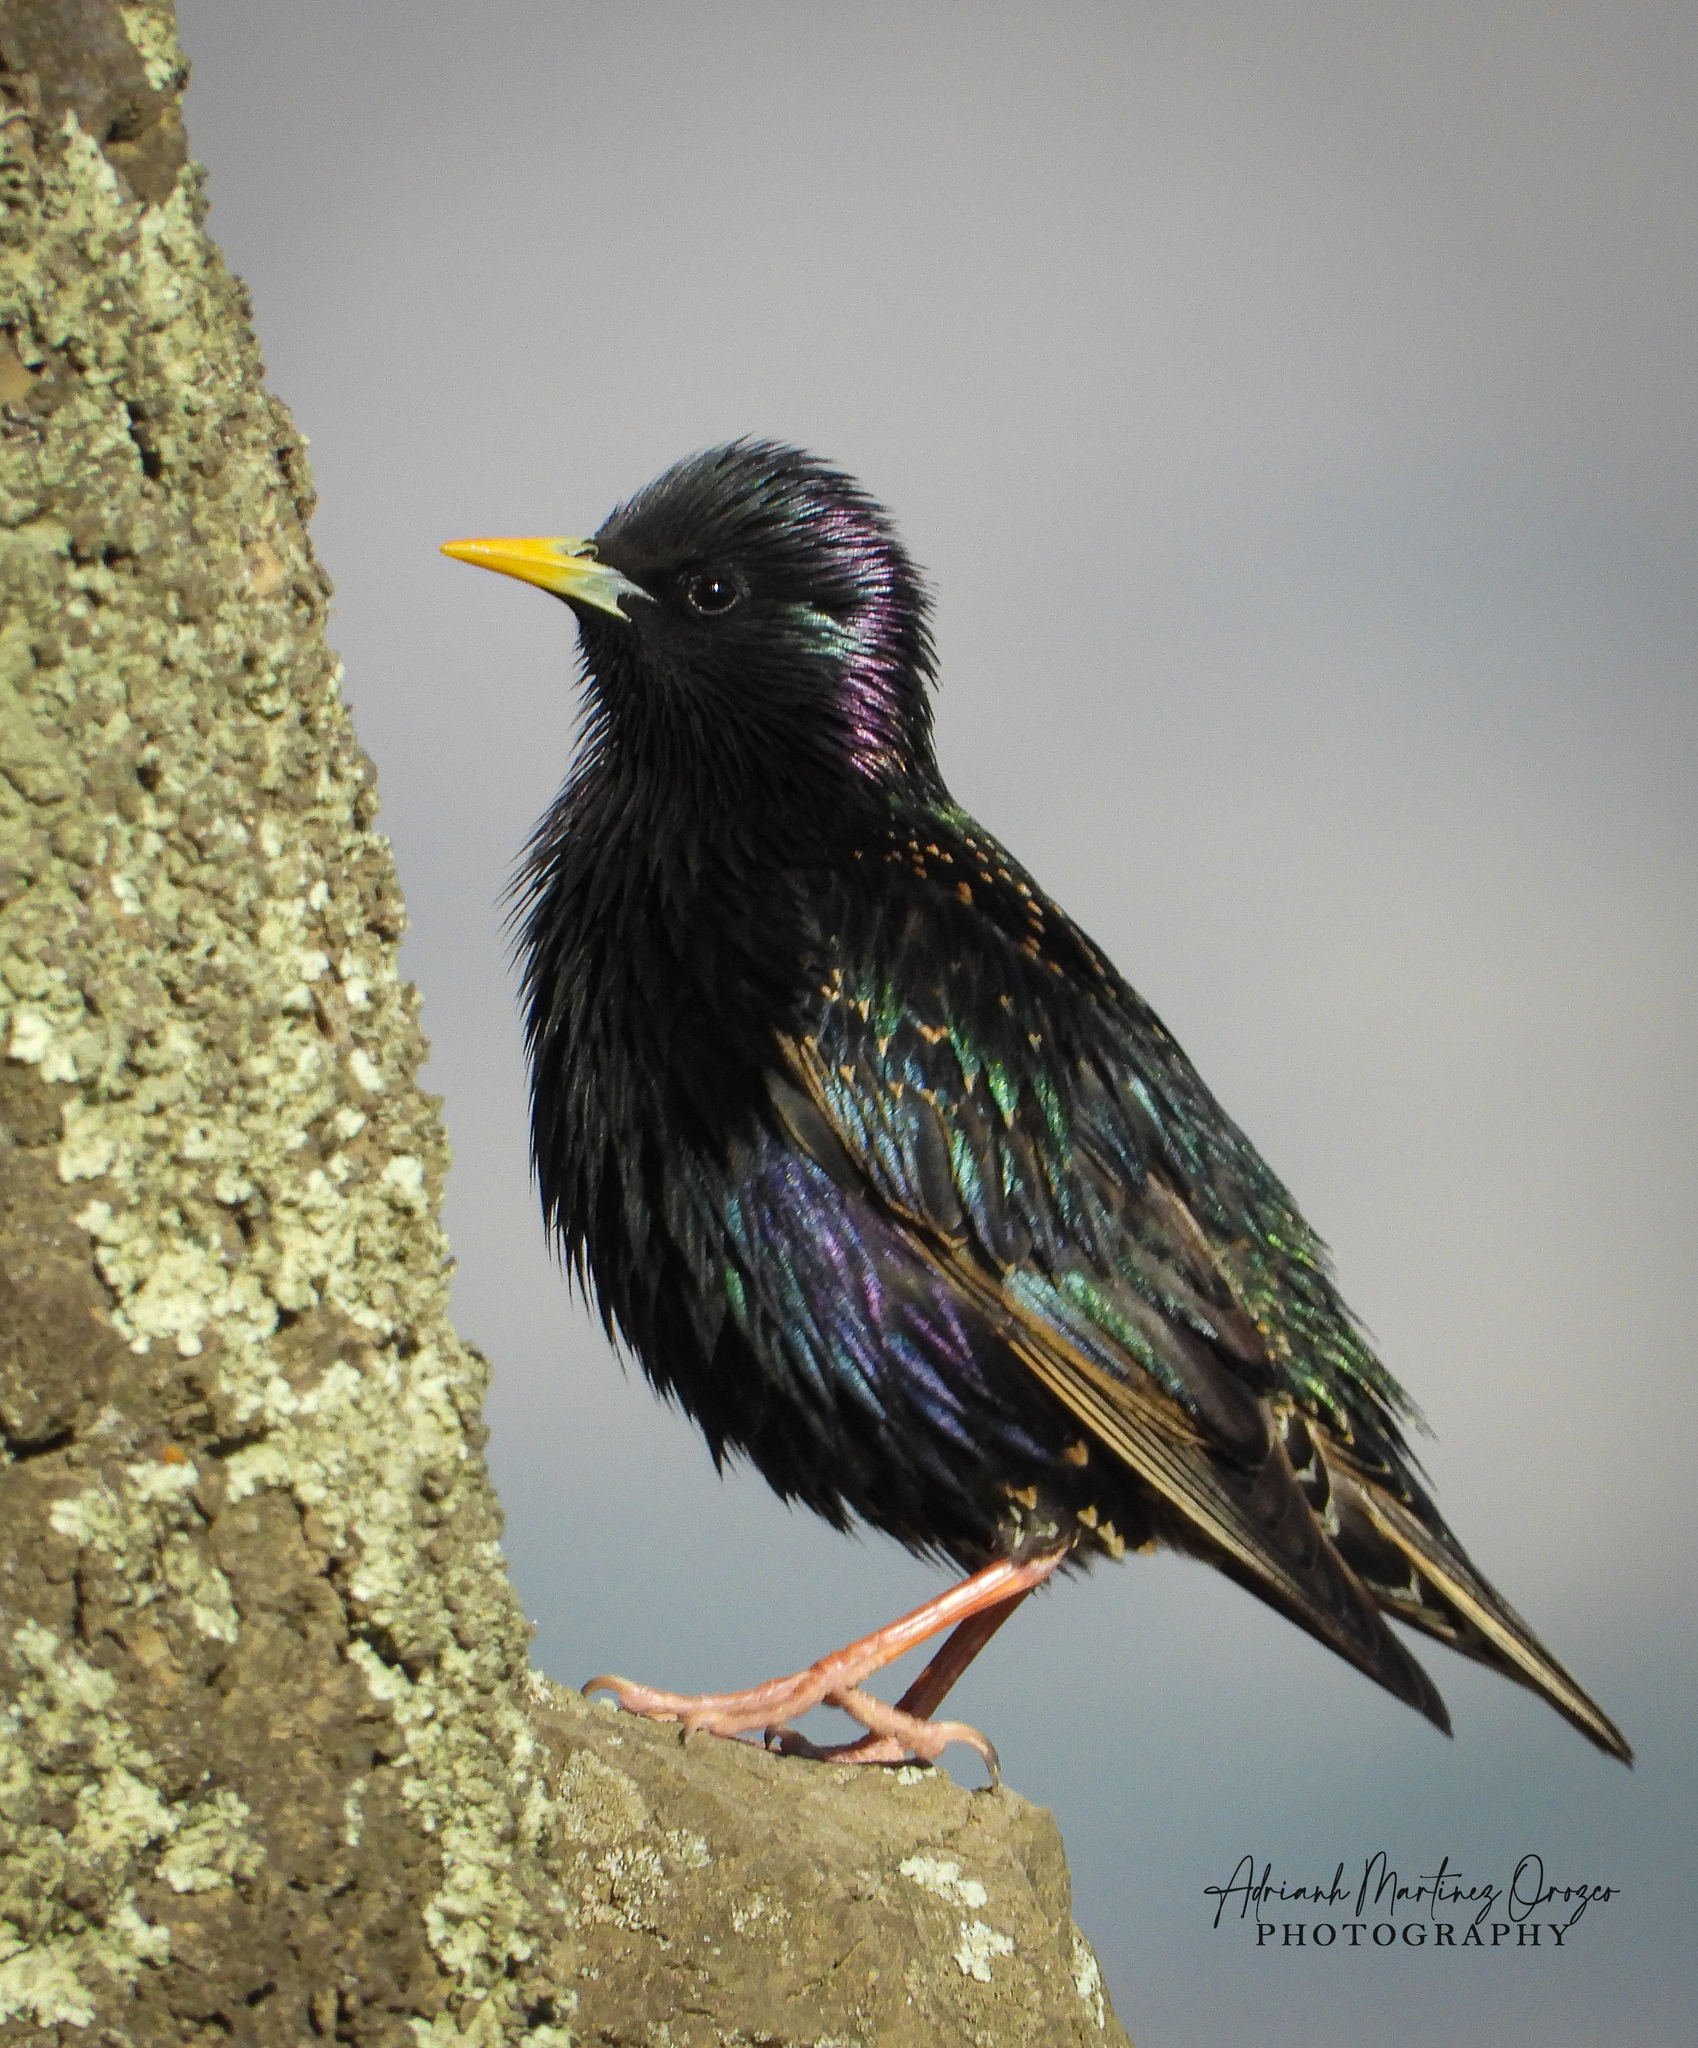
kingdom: Animalia
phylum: Chordata
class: Aves
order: Passeriformes
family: Sturnidae
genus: Sturnus
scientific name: Sturnus vulgaris
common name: Common starling
